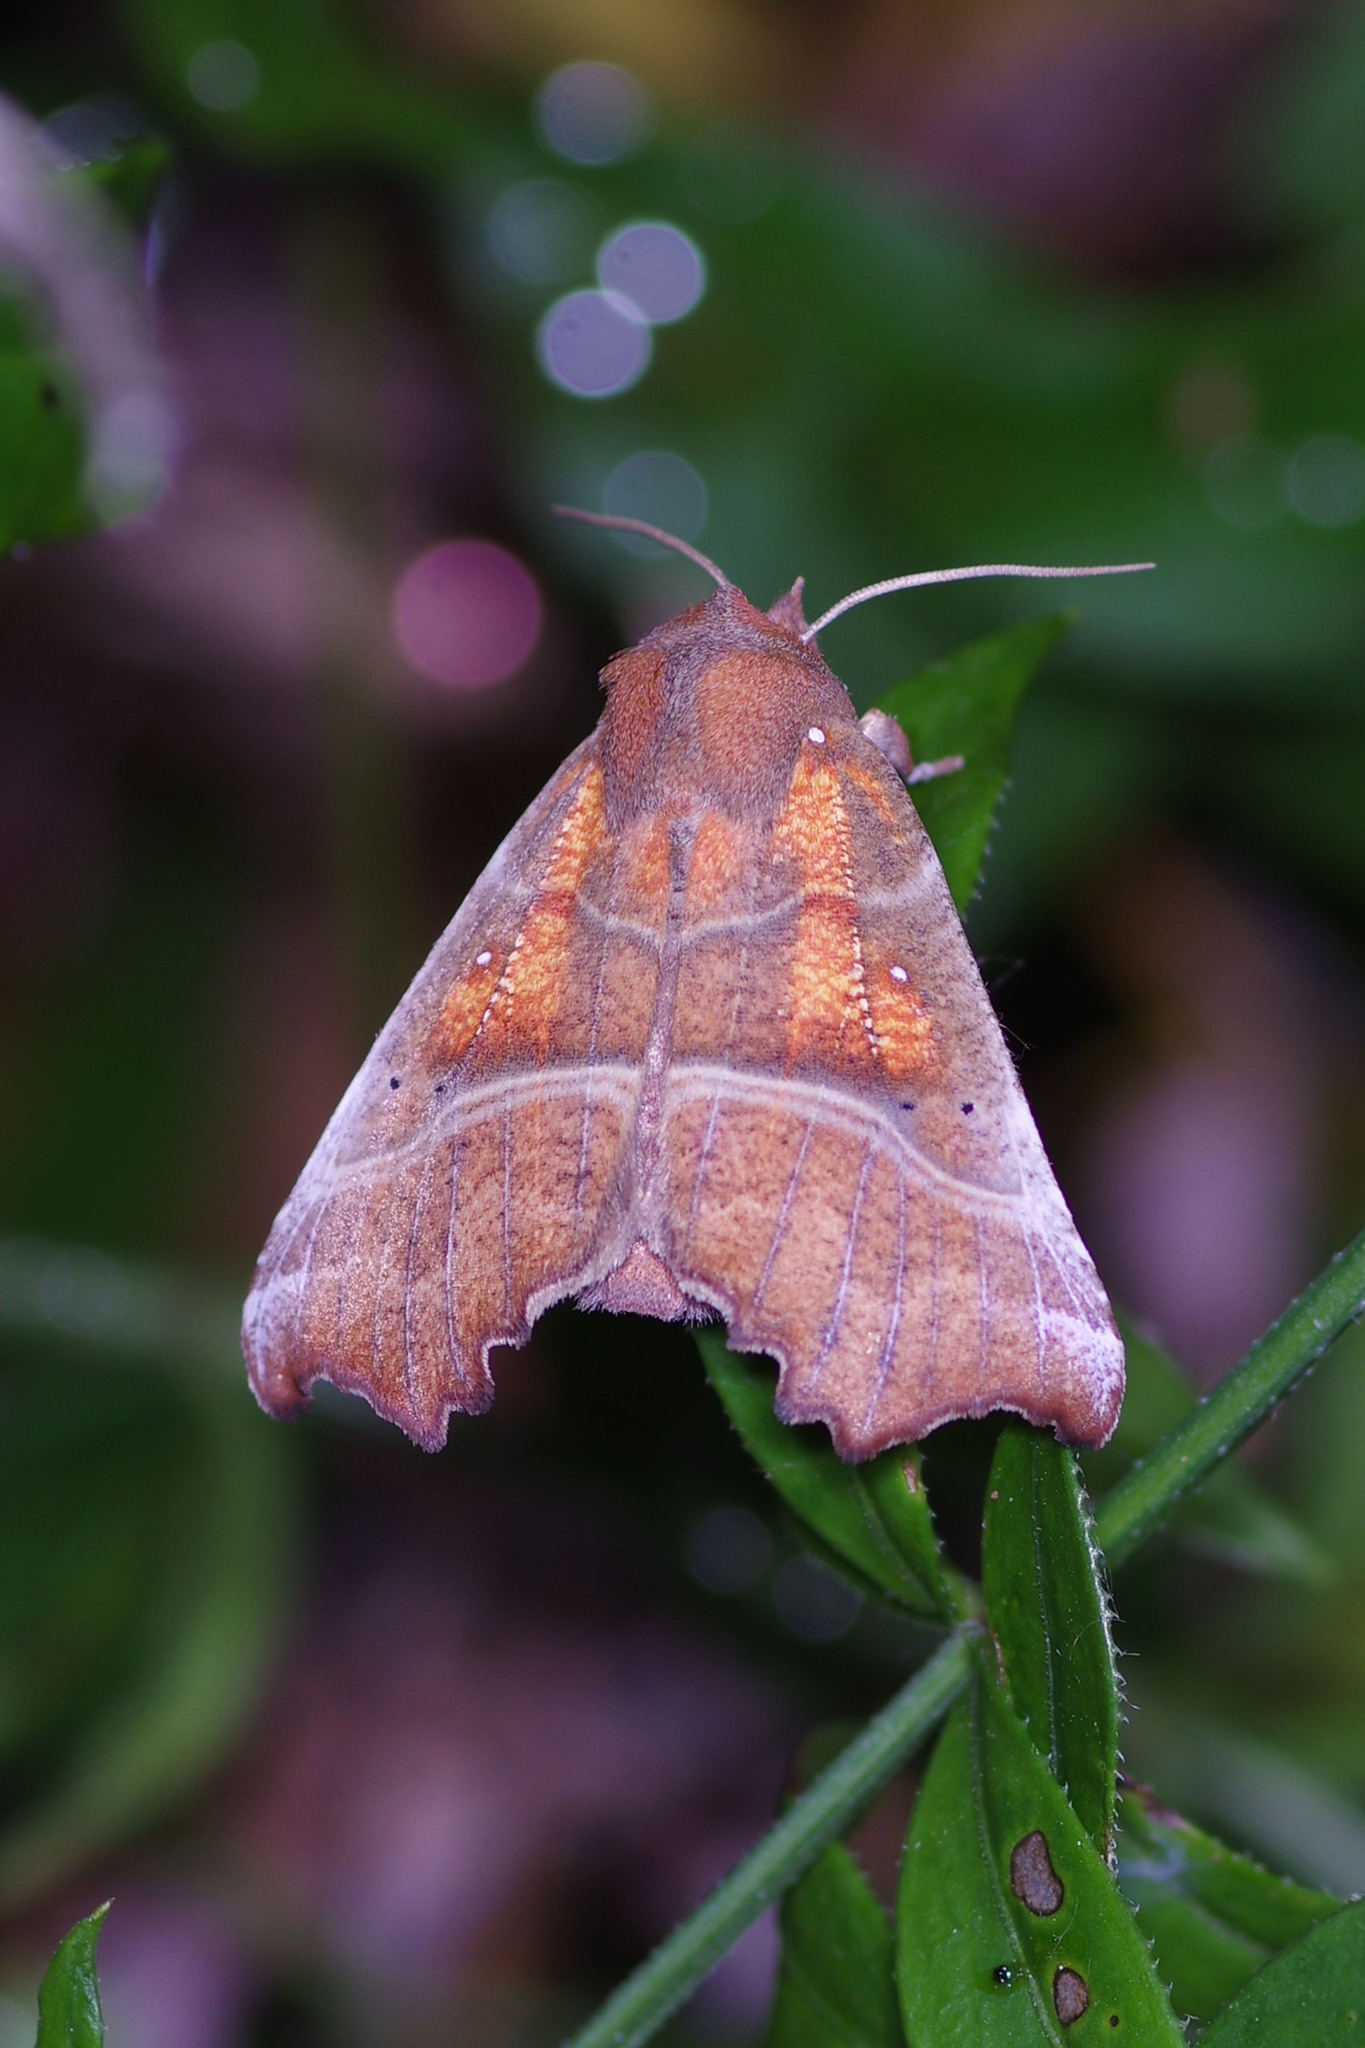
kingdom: Animalia
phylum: Arthropoda
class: Insecta
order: Lepidoptera
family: Erebidae
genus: Scoliopteryx
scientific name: Scoliopteryx libatrix
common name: Herald
